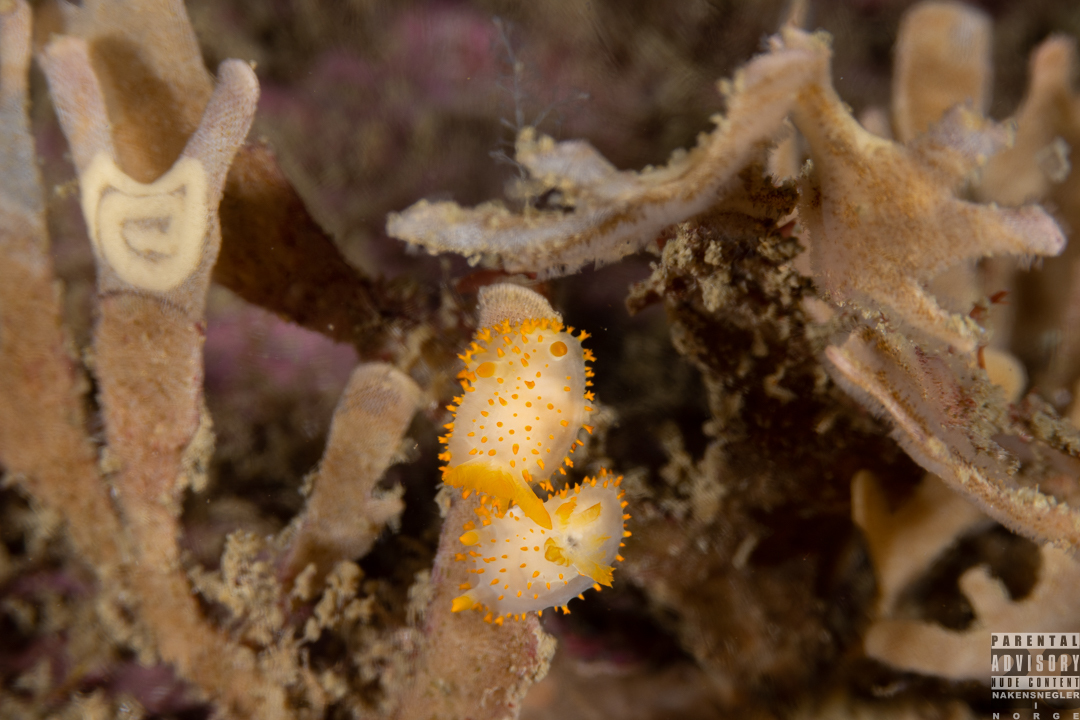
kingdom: Animalia
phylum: Mollusca
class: Gastropoda
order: Nudibranchia
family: Polyceridae
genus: Crimora
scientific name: Crimora papillata
